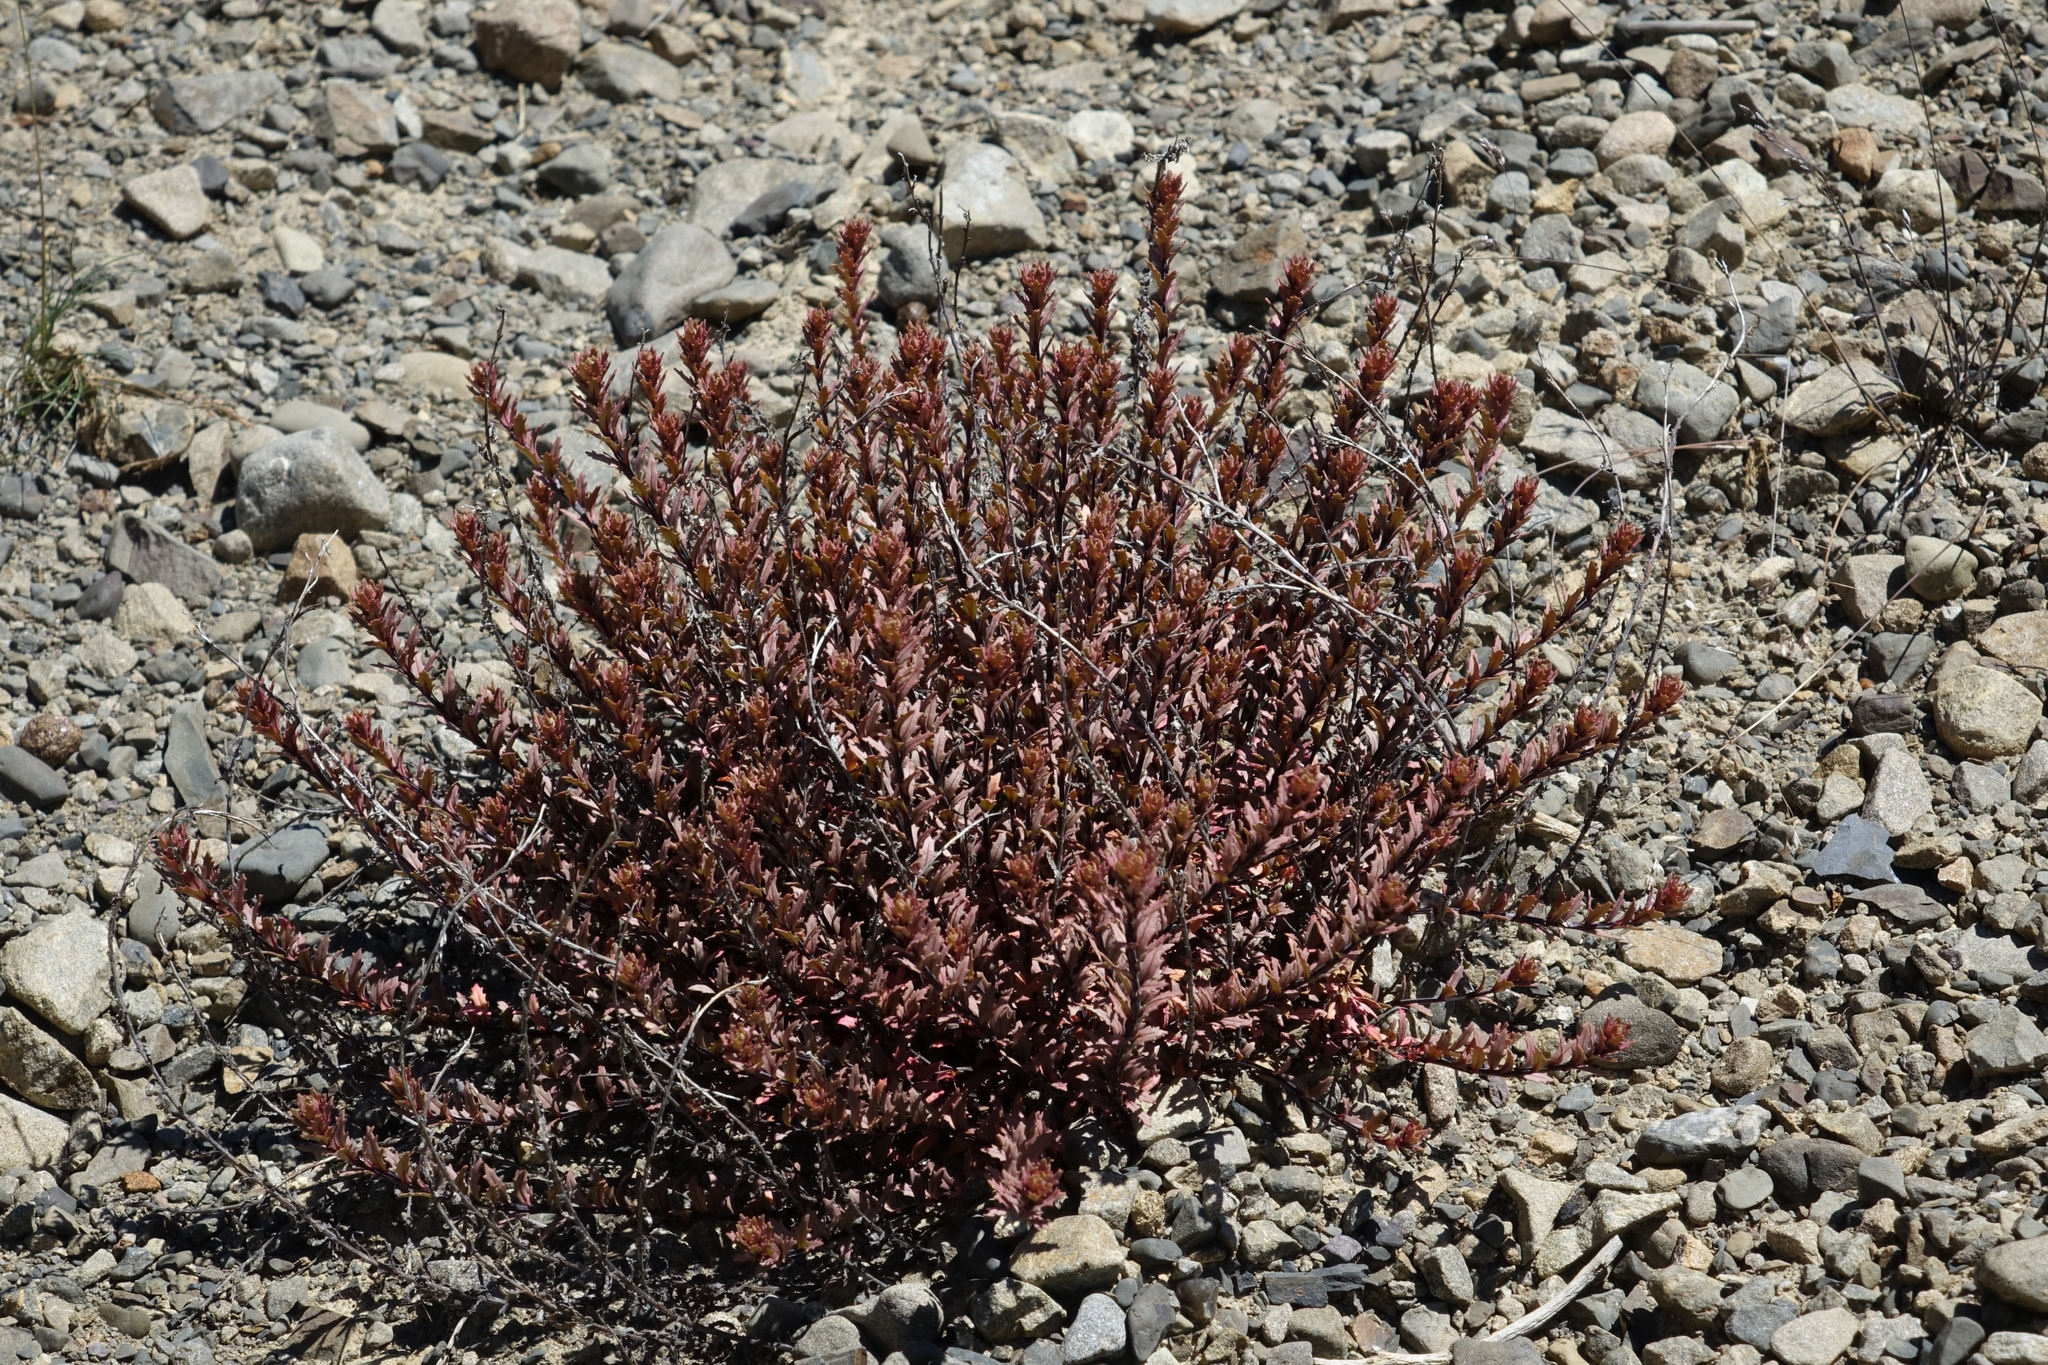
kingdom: Plantae
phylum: Tracheophyta
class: Magnoliopsida
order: Myrtales
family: Onagraceae
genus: Epilobium
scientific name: Epilobium melanocaulon
